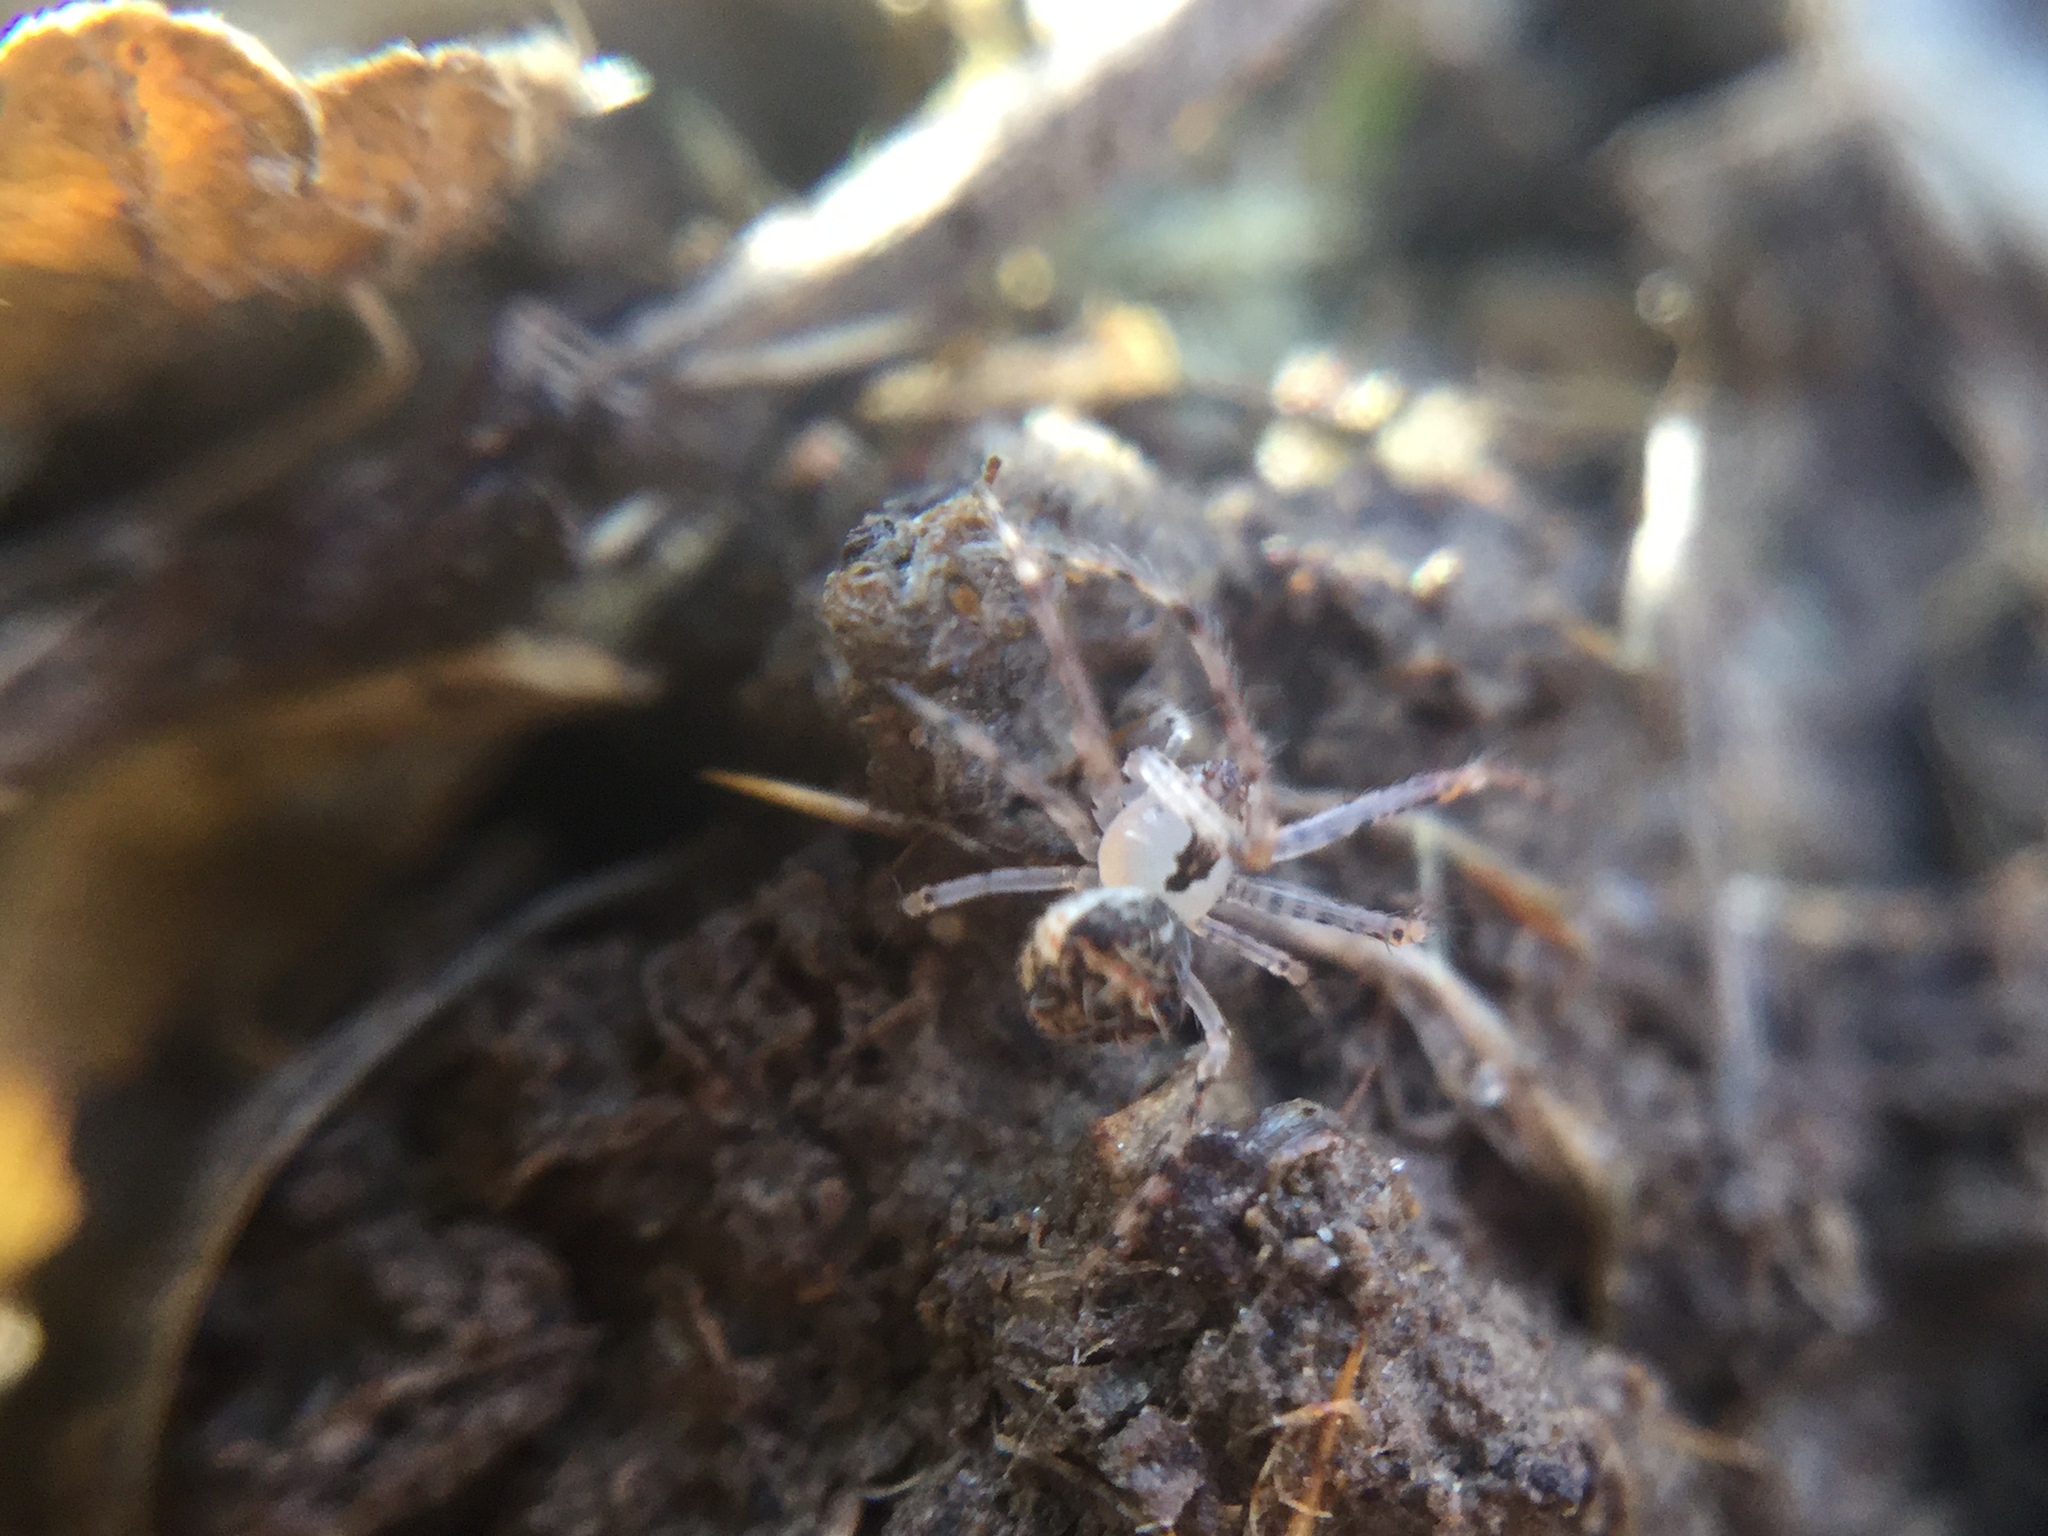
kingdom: Animalia
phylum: Arthropoda
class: Arachnida
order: Araneae
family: Mimetidae
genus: Mimetus
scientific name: Mimetus puritanus
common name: Common pirate spider
